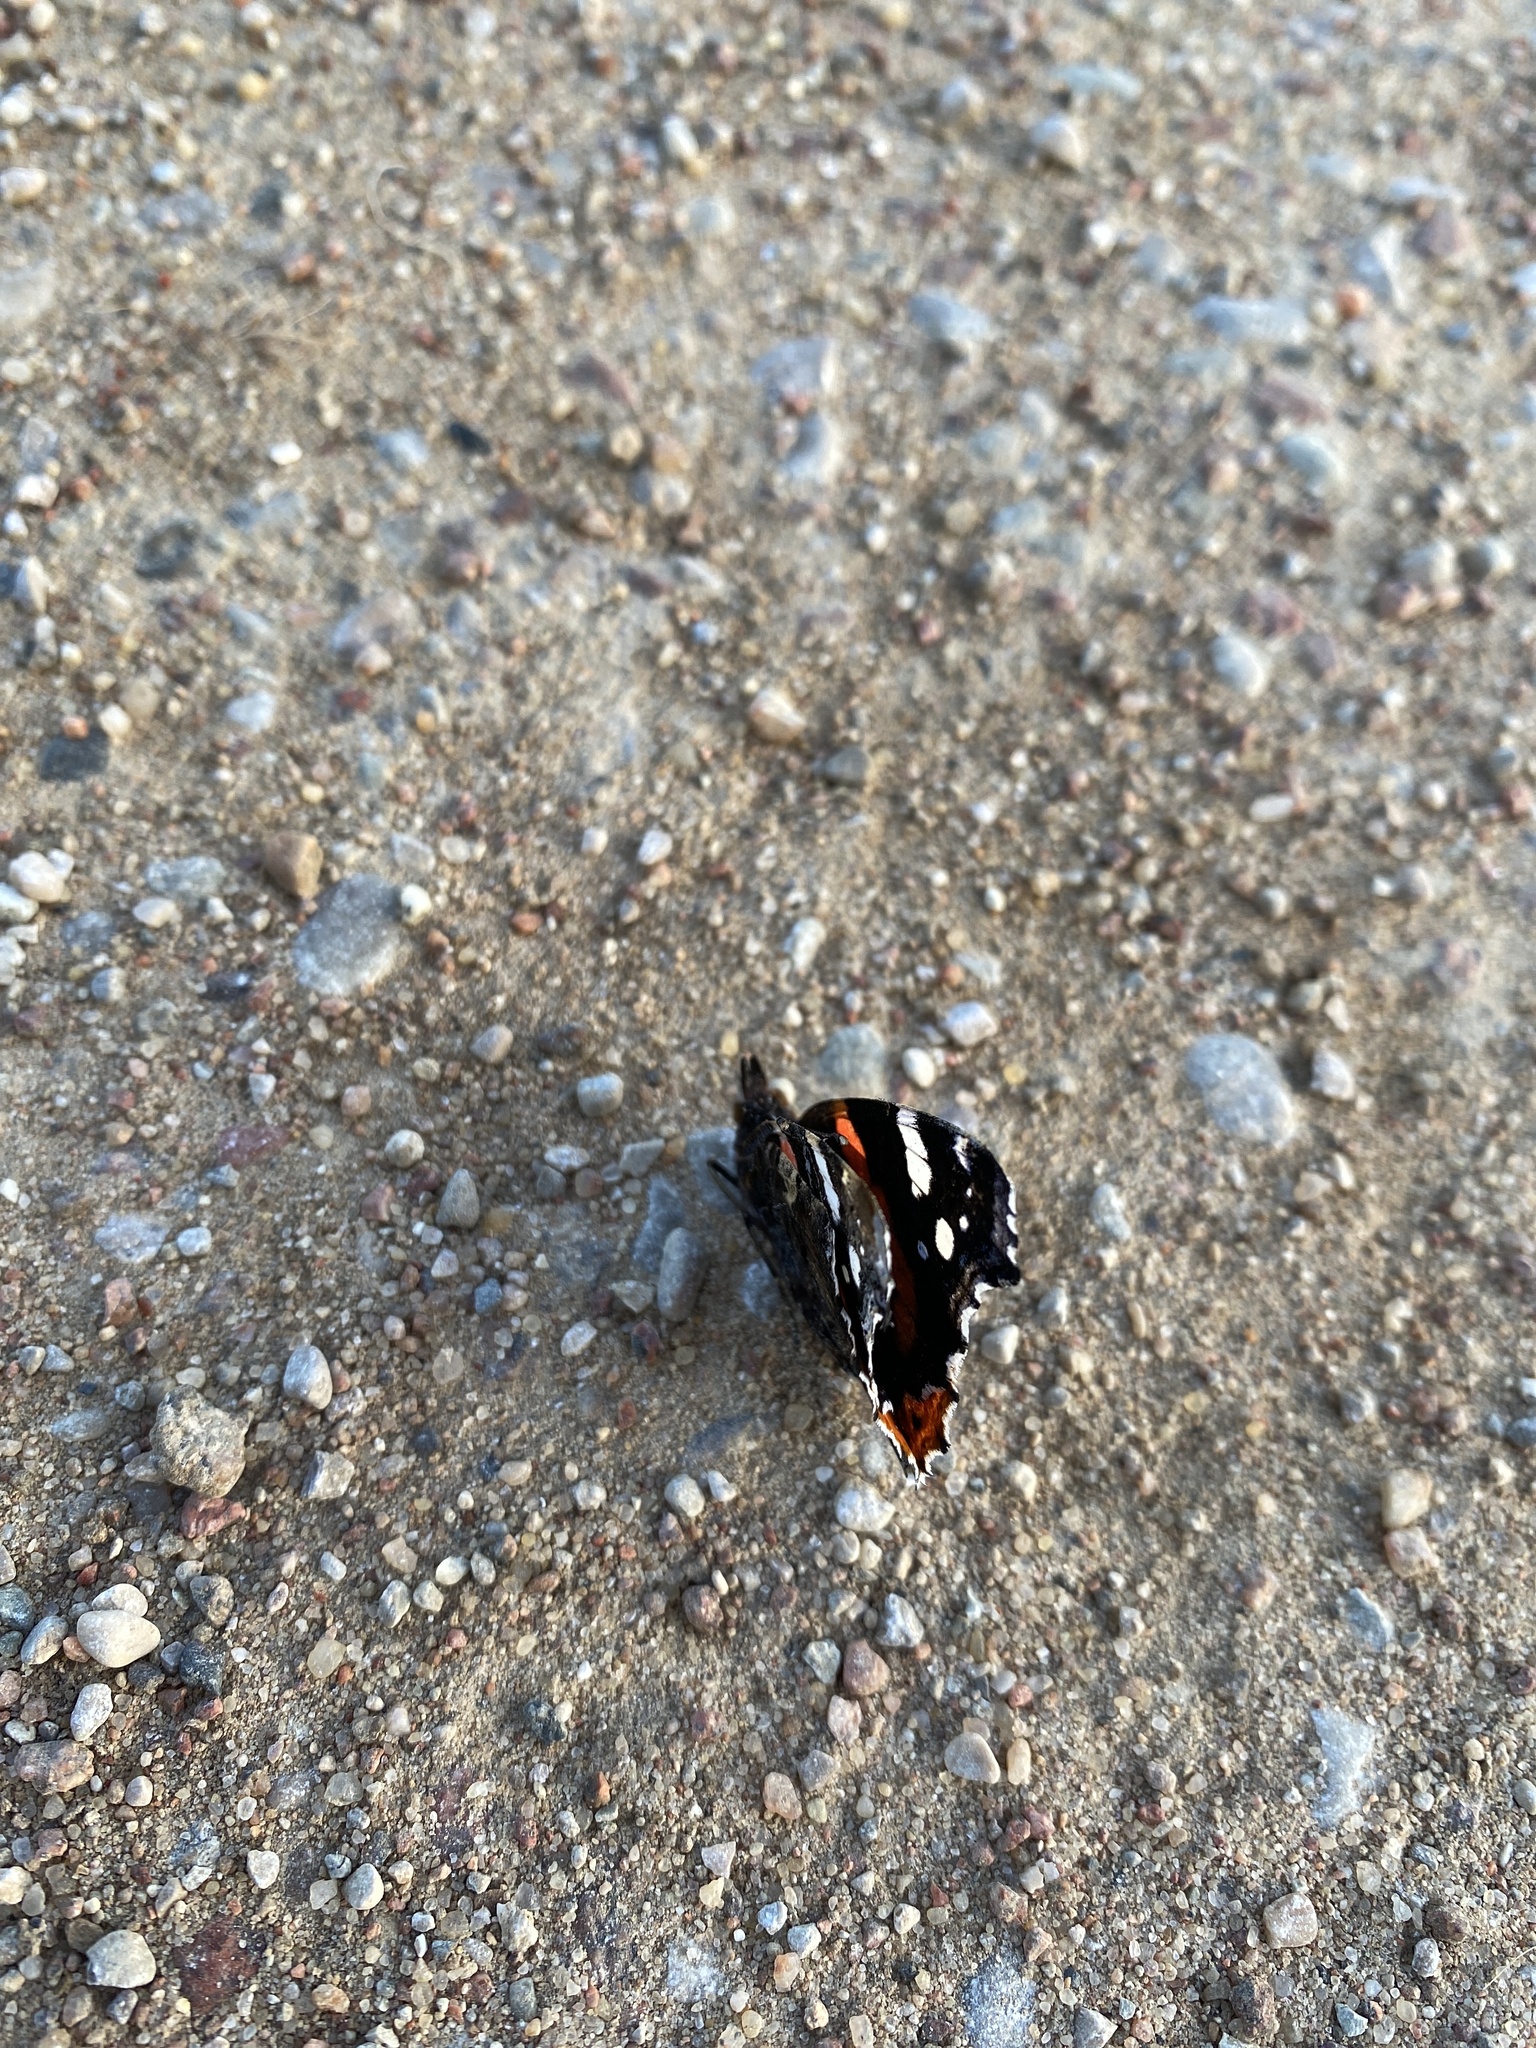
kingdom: Animalia
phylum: Arthropoda
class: Insecta
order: Lepidoptera
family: Nymphalidae
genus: Vanessa
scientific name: Vanessa atalanta
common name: Red admiral
